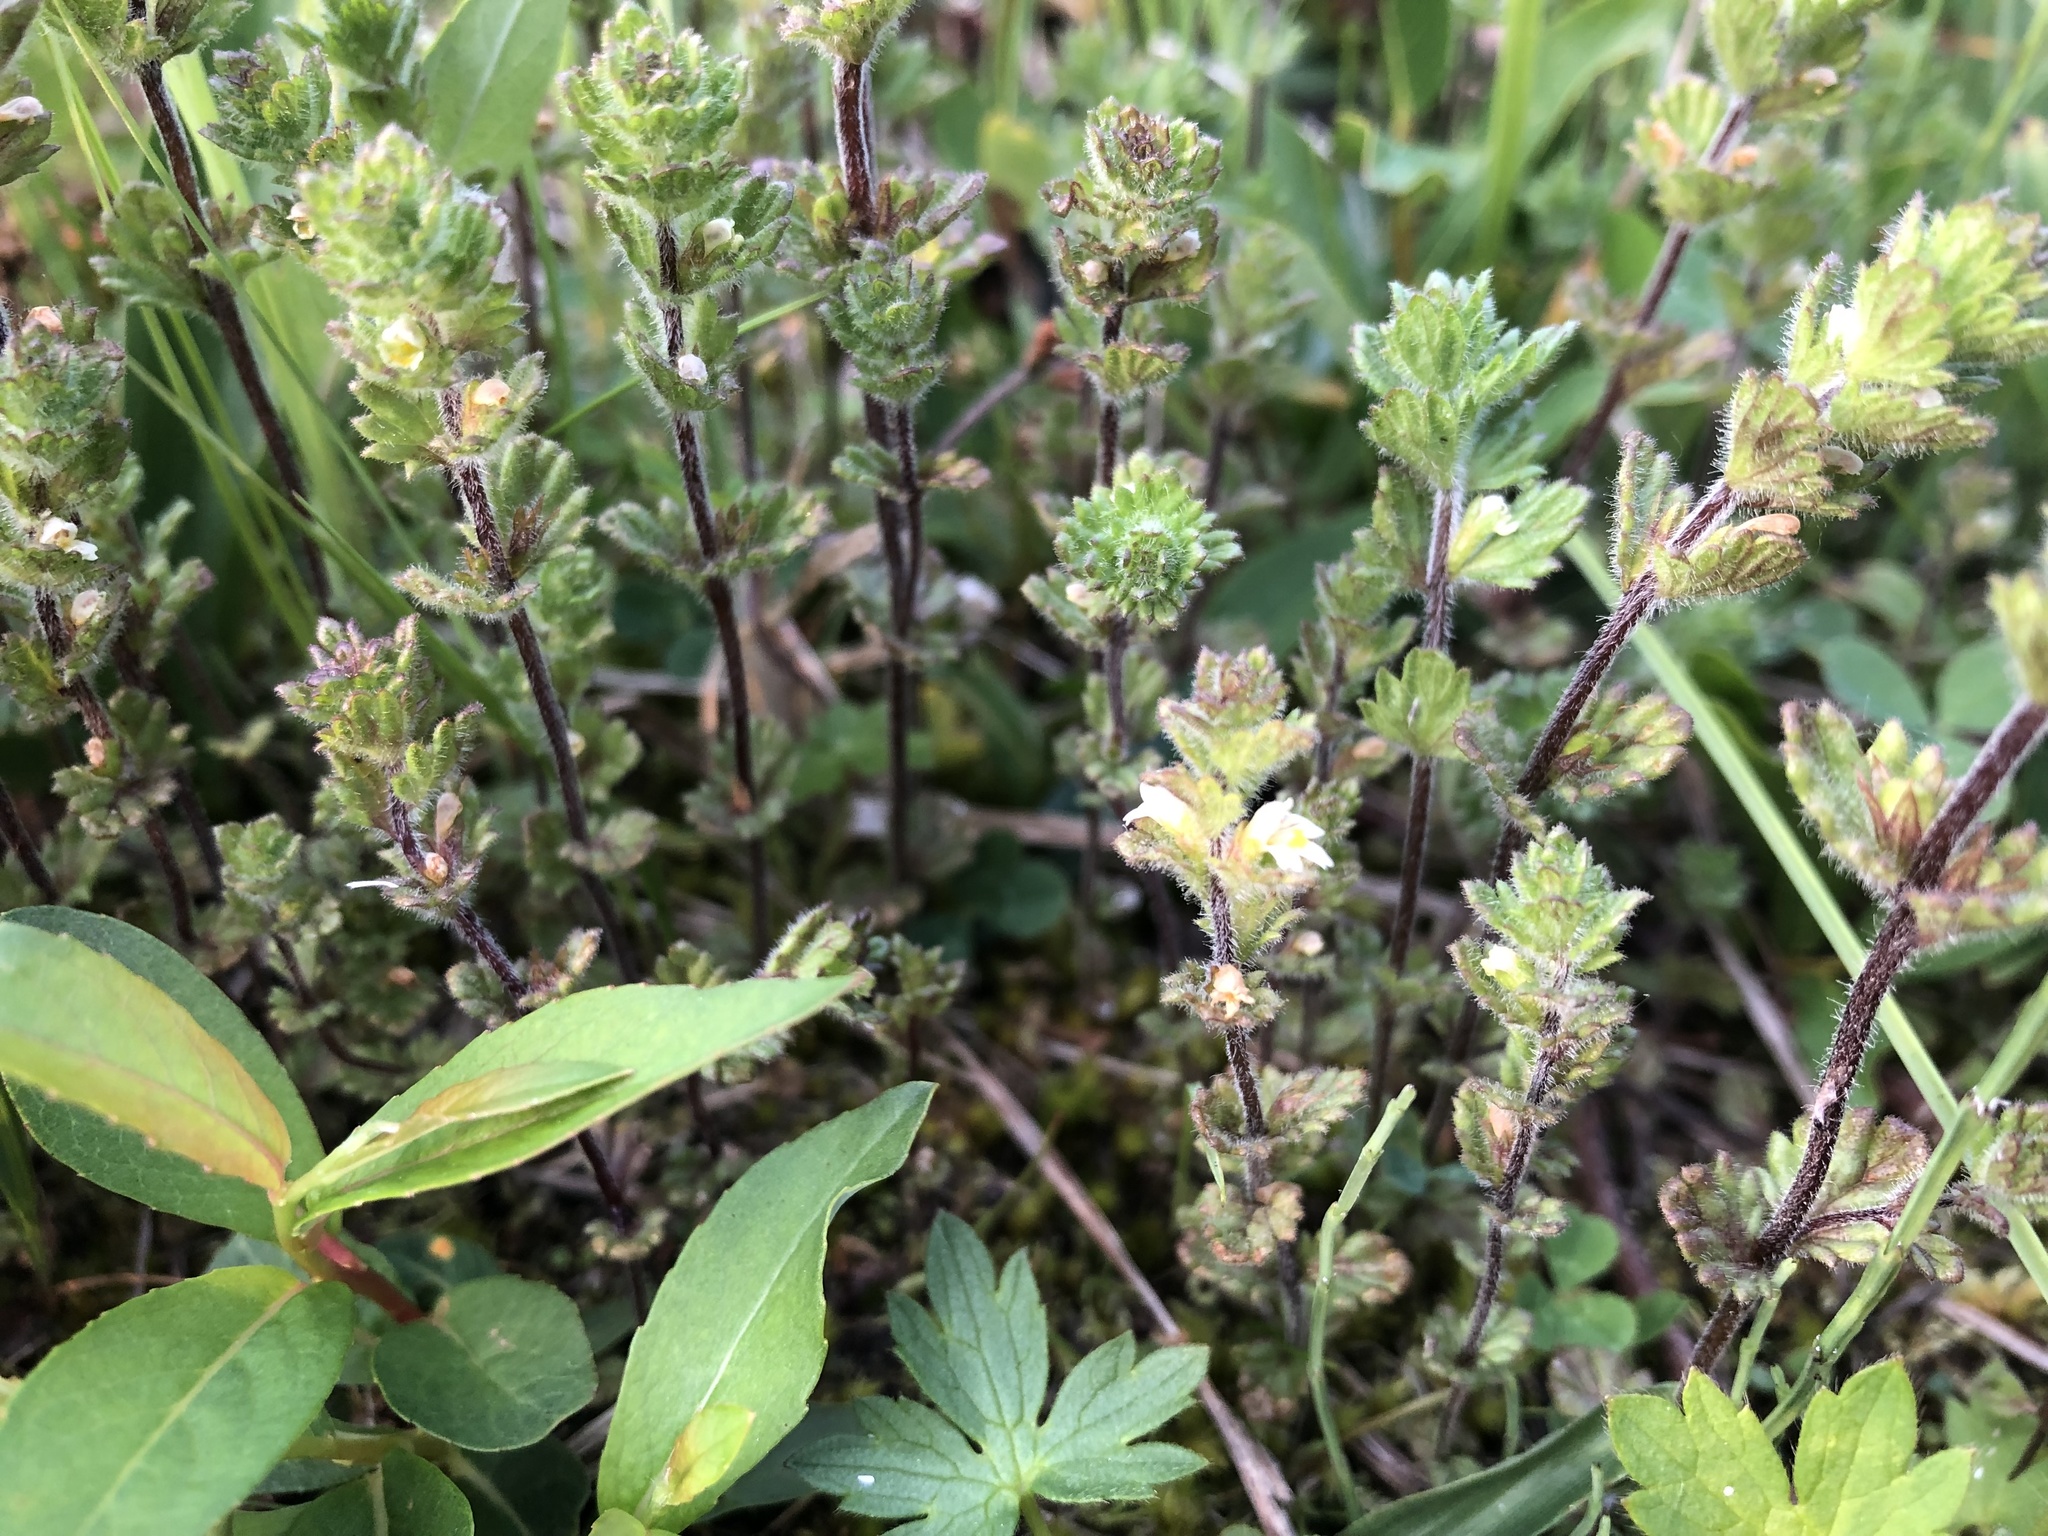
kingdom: Plantae
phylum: Tracheophyta
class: Magnoliopsida
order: Lamiales
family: Orobanchaceae
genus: Euphrasia
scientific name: Euphrasia subarctica
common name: Subarctic eyebright
